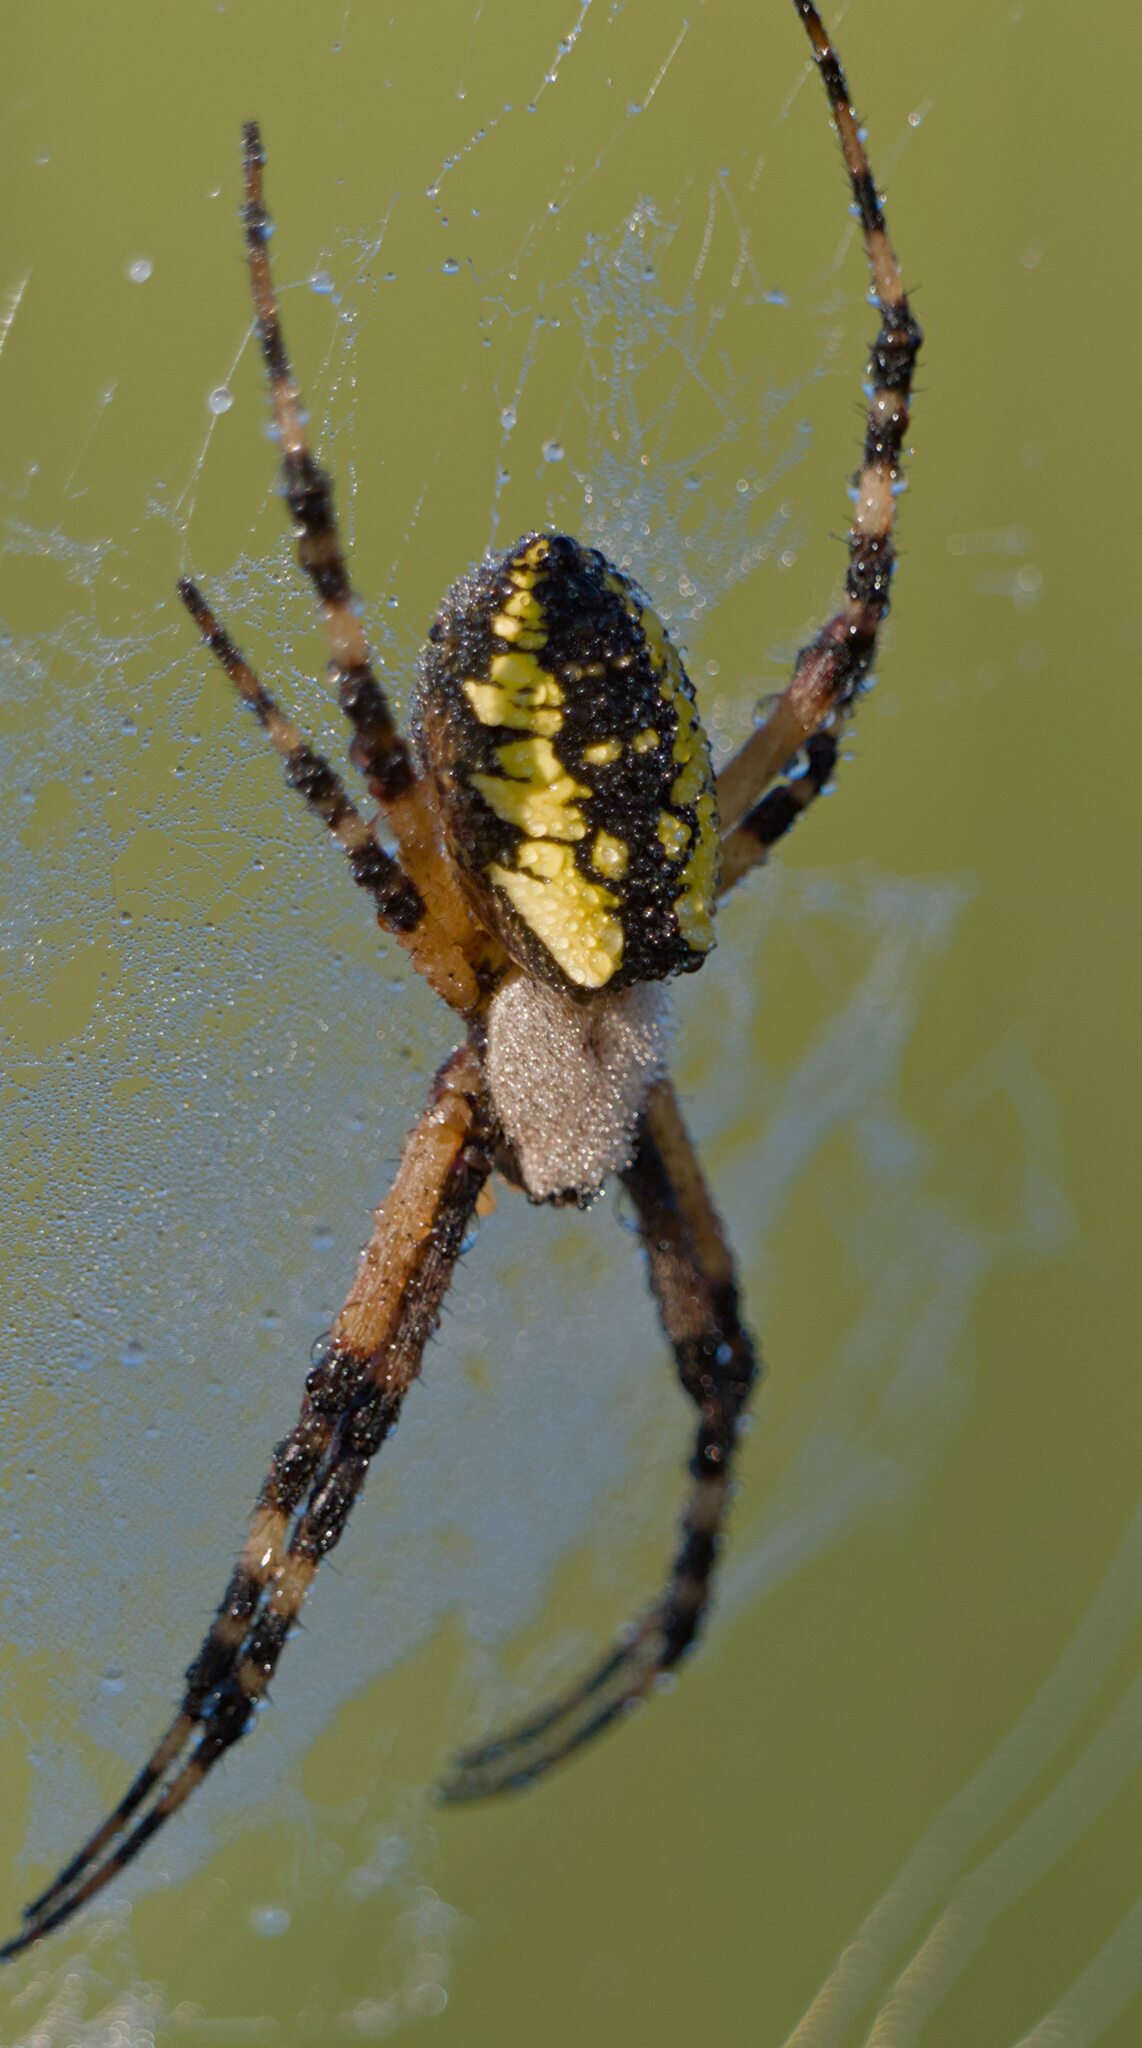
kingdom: Animalia
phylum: Arthropoda
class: Arachnida
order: Araneae
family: Araneidae
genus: Argiope
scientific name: Argiope aurantia
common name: Orb weavers
